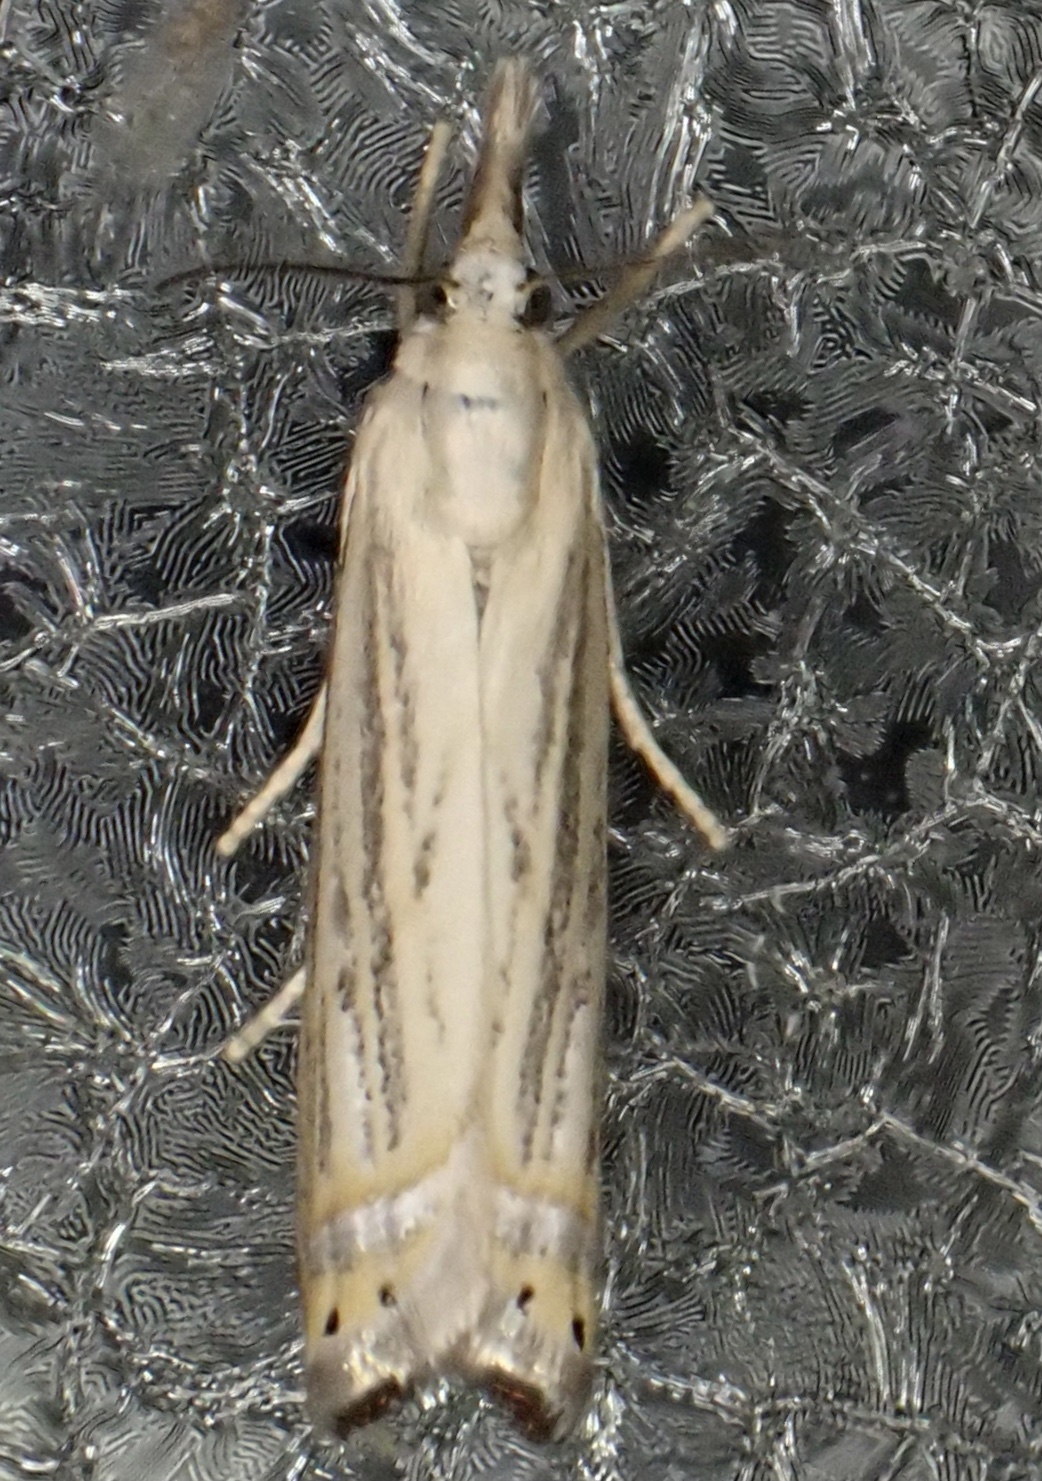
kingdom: Animalia
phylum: Arthropoda
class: Insecta
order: Lepidoptera
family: Crambidae
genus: Chrysoteuchia
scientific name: Chrysoteuchia topiarius
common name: Topiary grass-veneer
